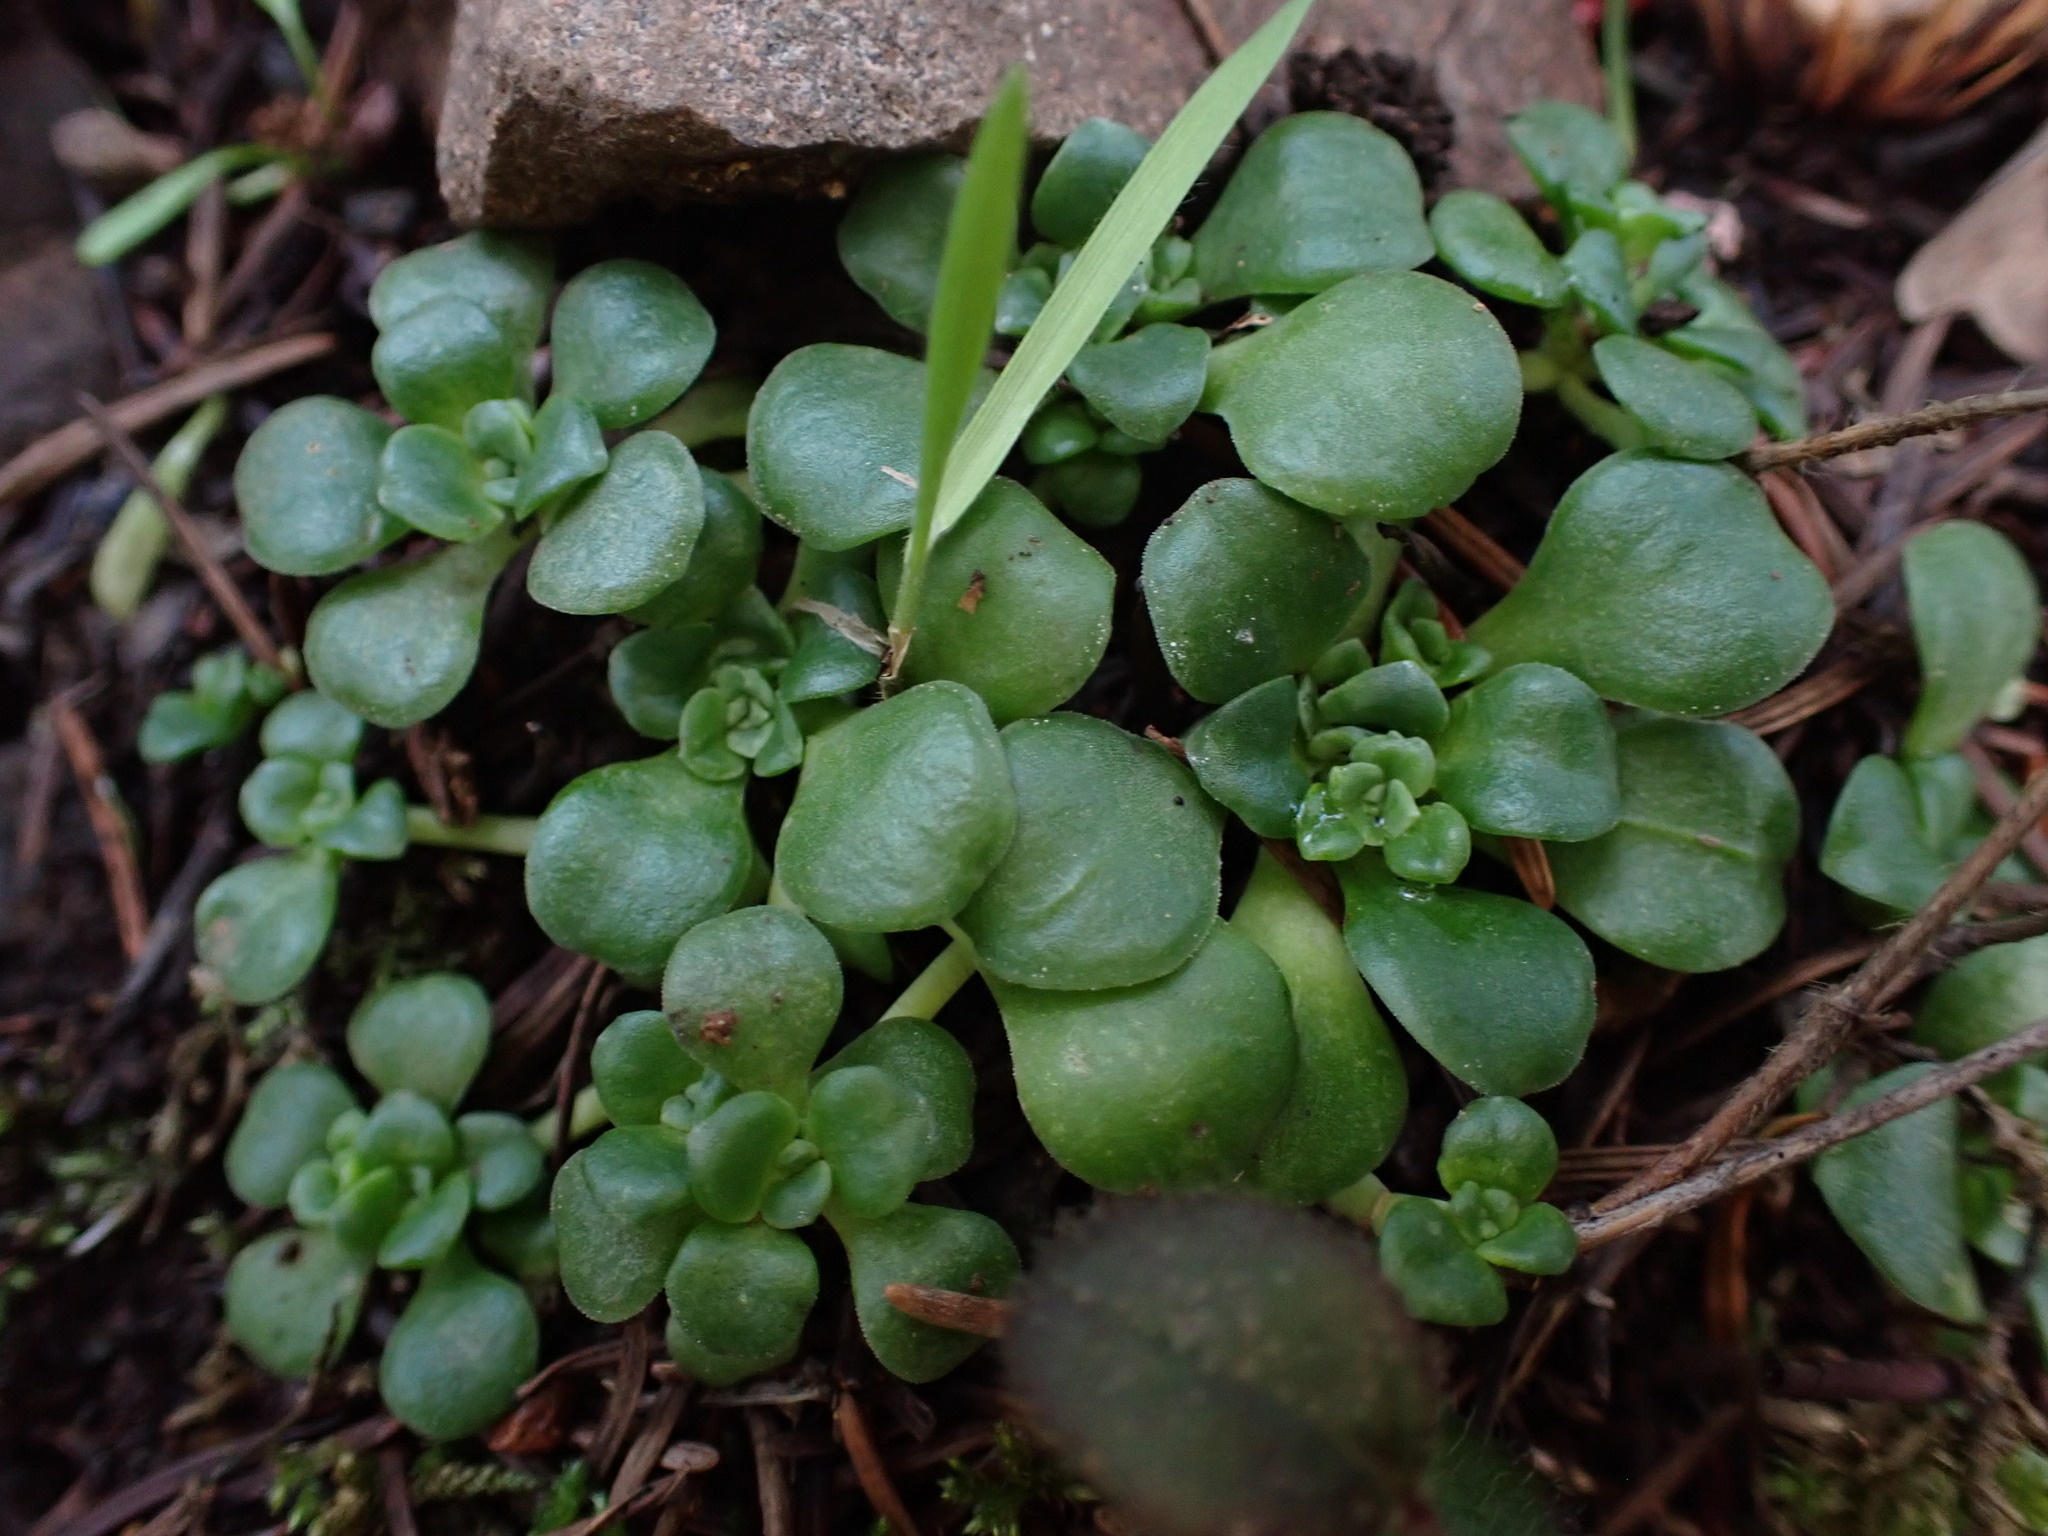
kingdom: Plantae
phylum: Tracheophyta
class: Magnoliopsida
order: Saxifragales
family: Crassulaceae
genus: Sedum
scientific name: Sedum spathulifolium
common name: Colorado stonecrop
